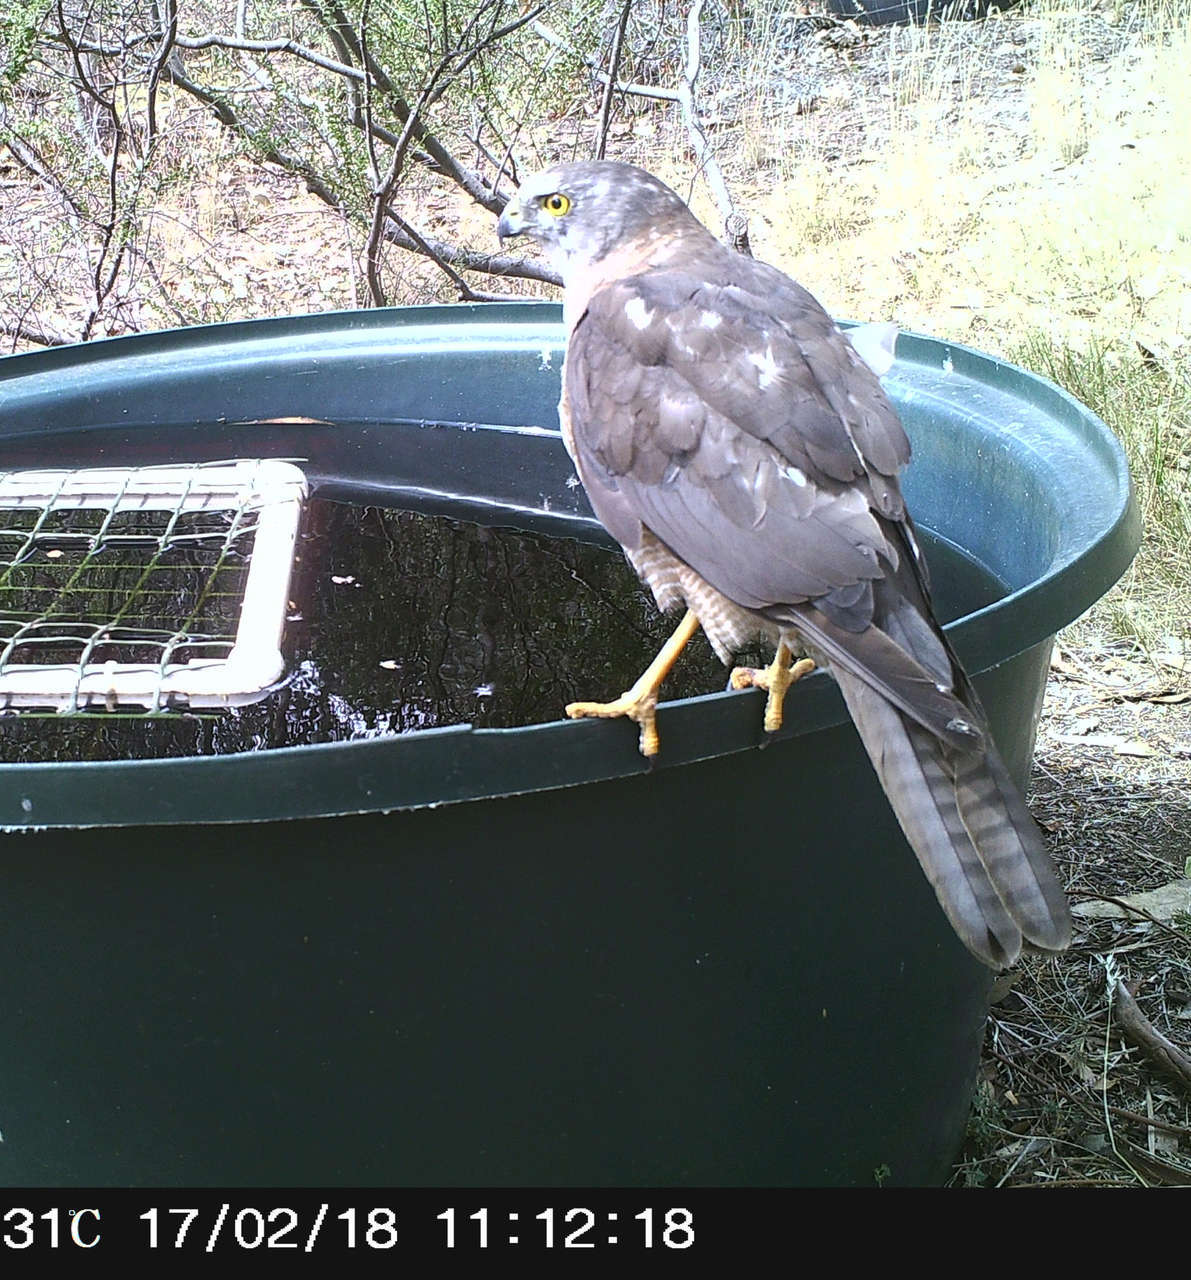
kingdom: Animalia
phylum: Chordata
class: Aves
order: Accipitriformes
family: Accipitridae
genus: Accipiter
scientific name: Accipiter fasciatus
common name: Brown goshawk
